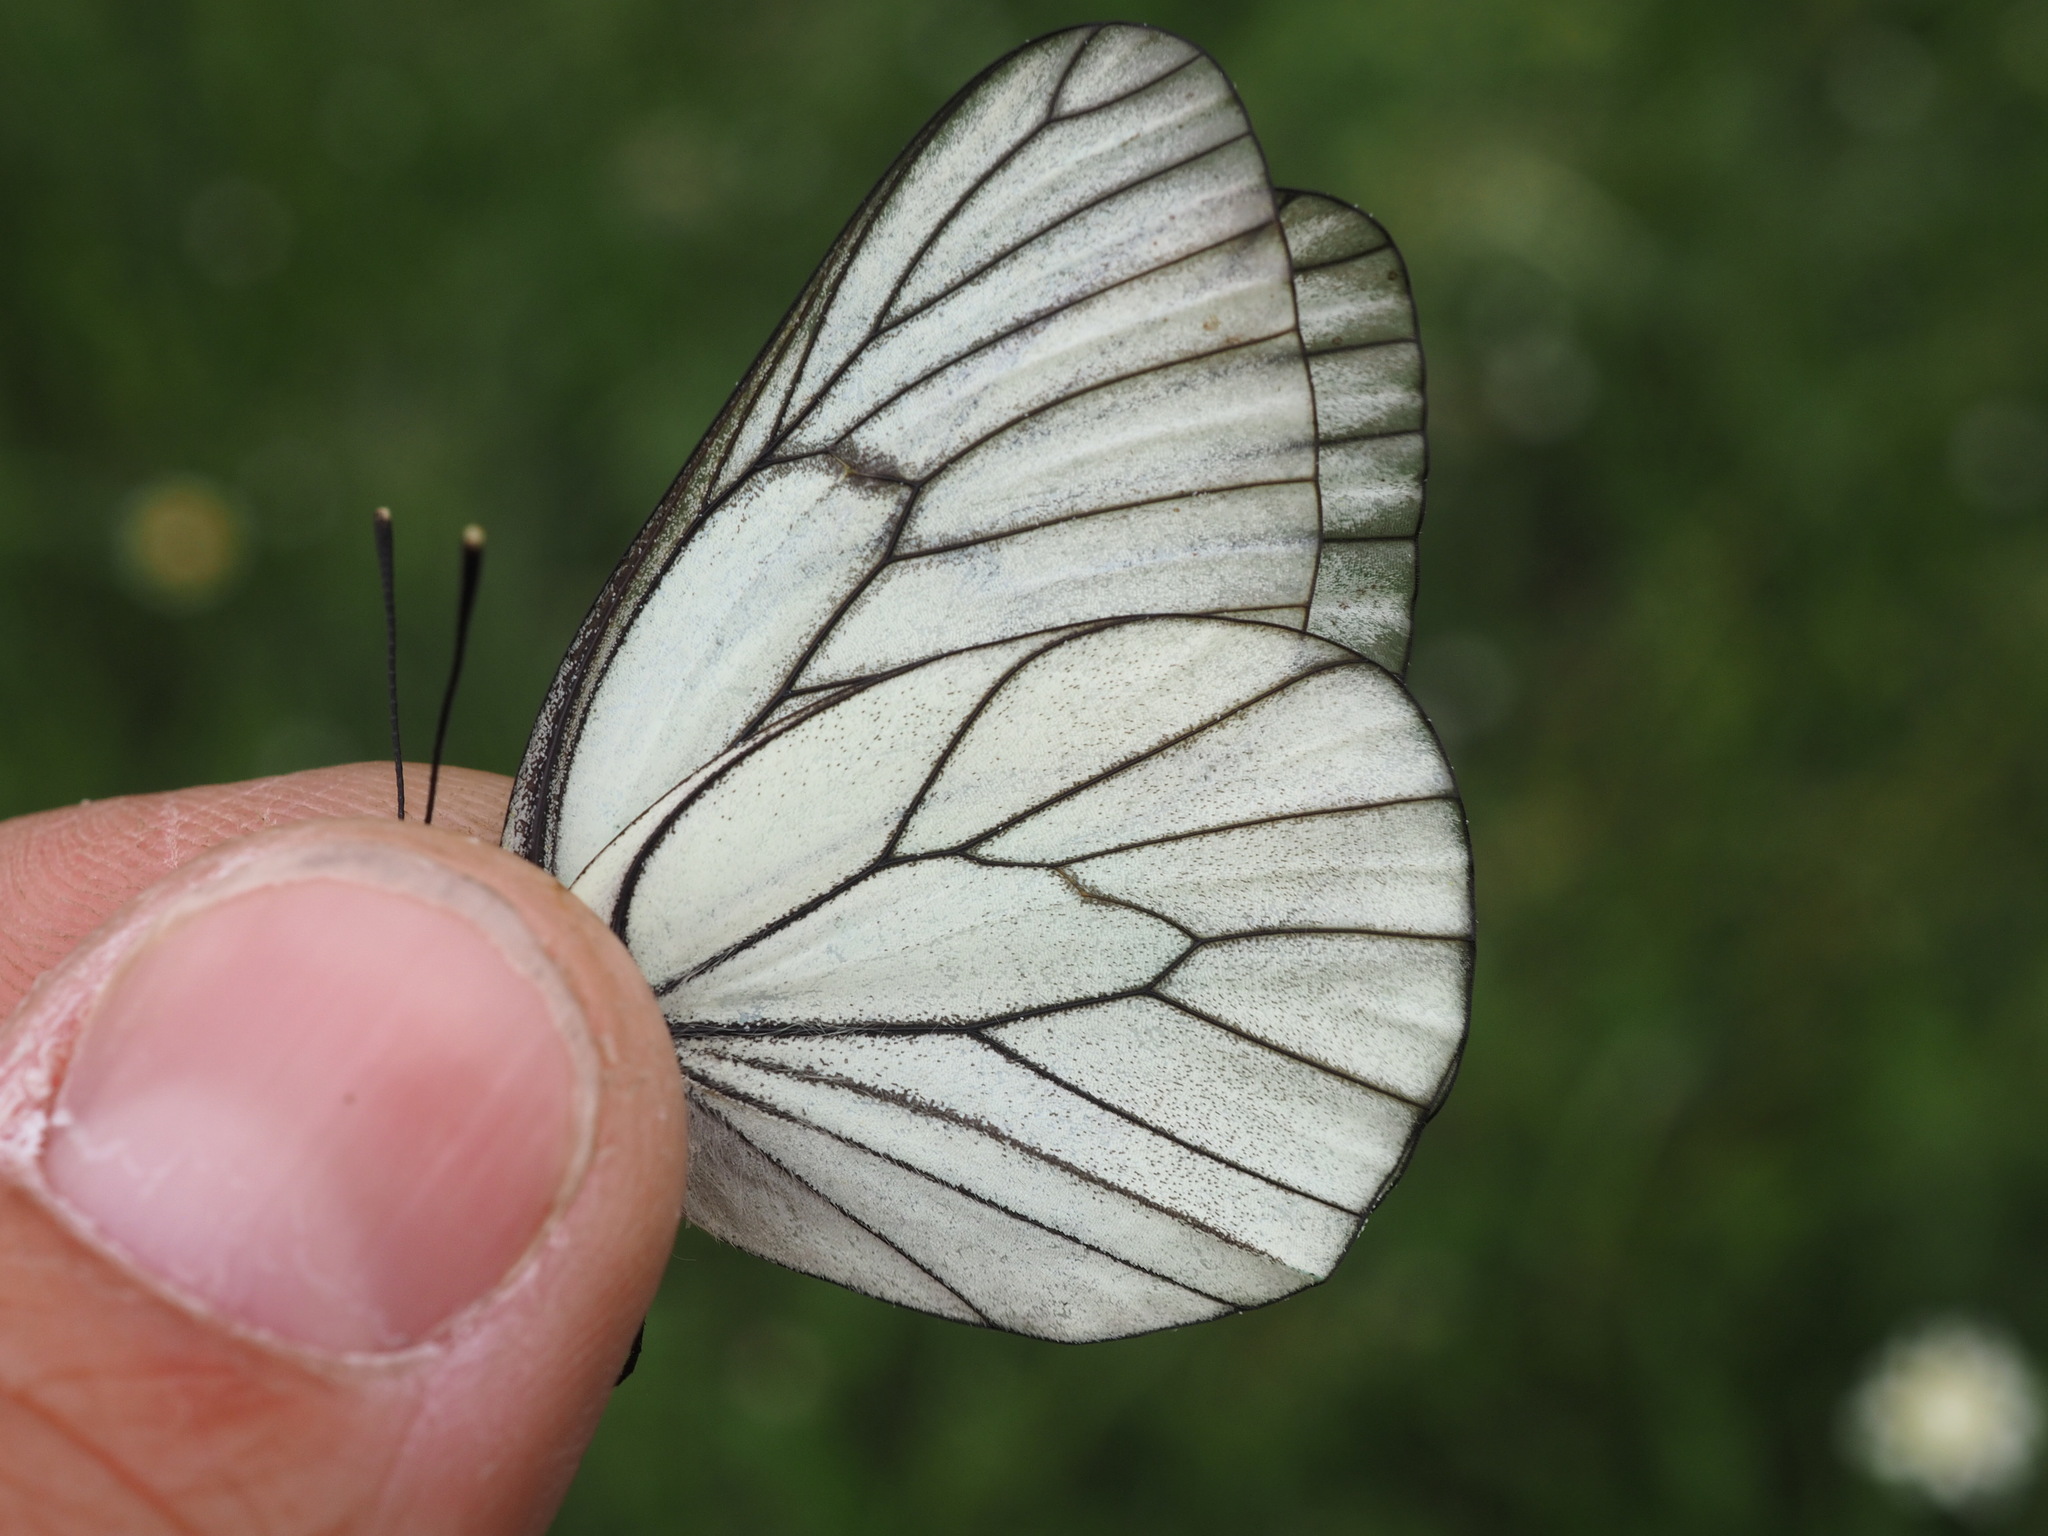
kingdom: Animalia
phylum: Arthropoda
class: Insecta
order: Lepidoptera
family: Pieridae
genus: Aporia
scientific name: Aporia crataegi
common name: Black-veined white
